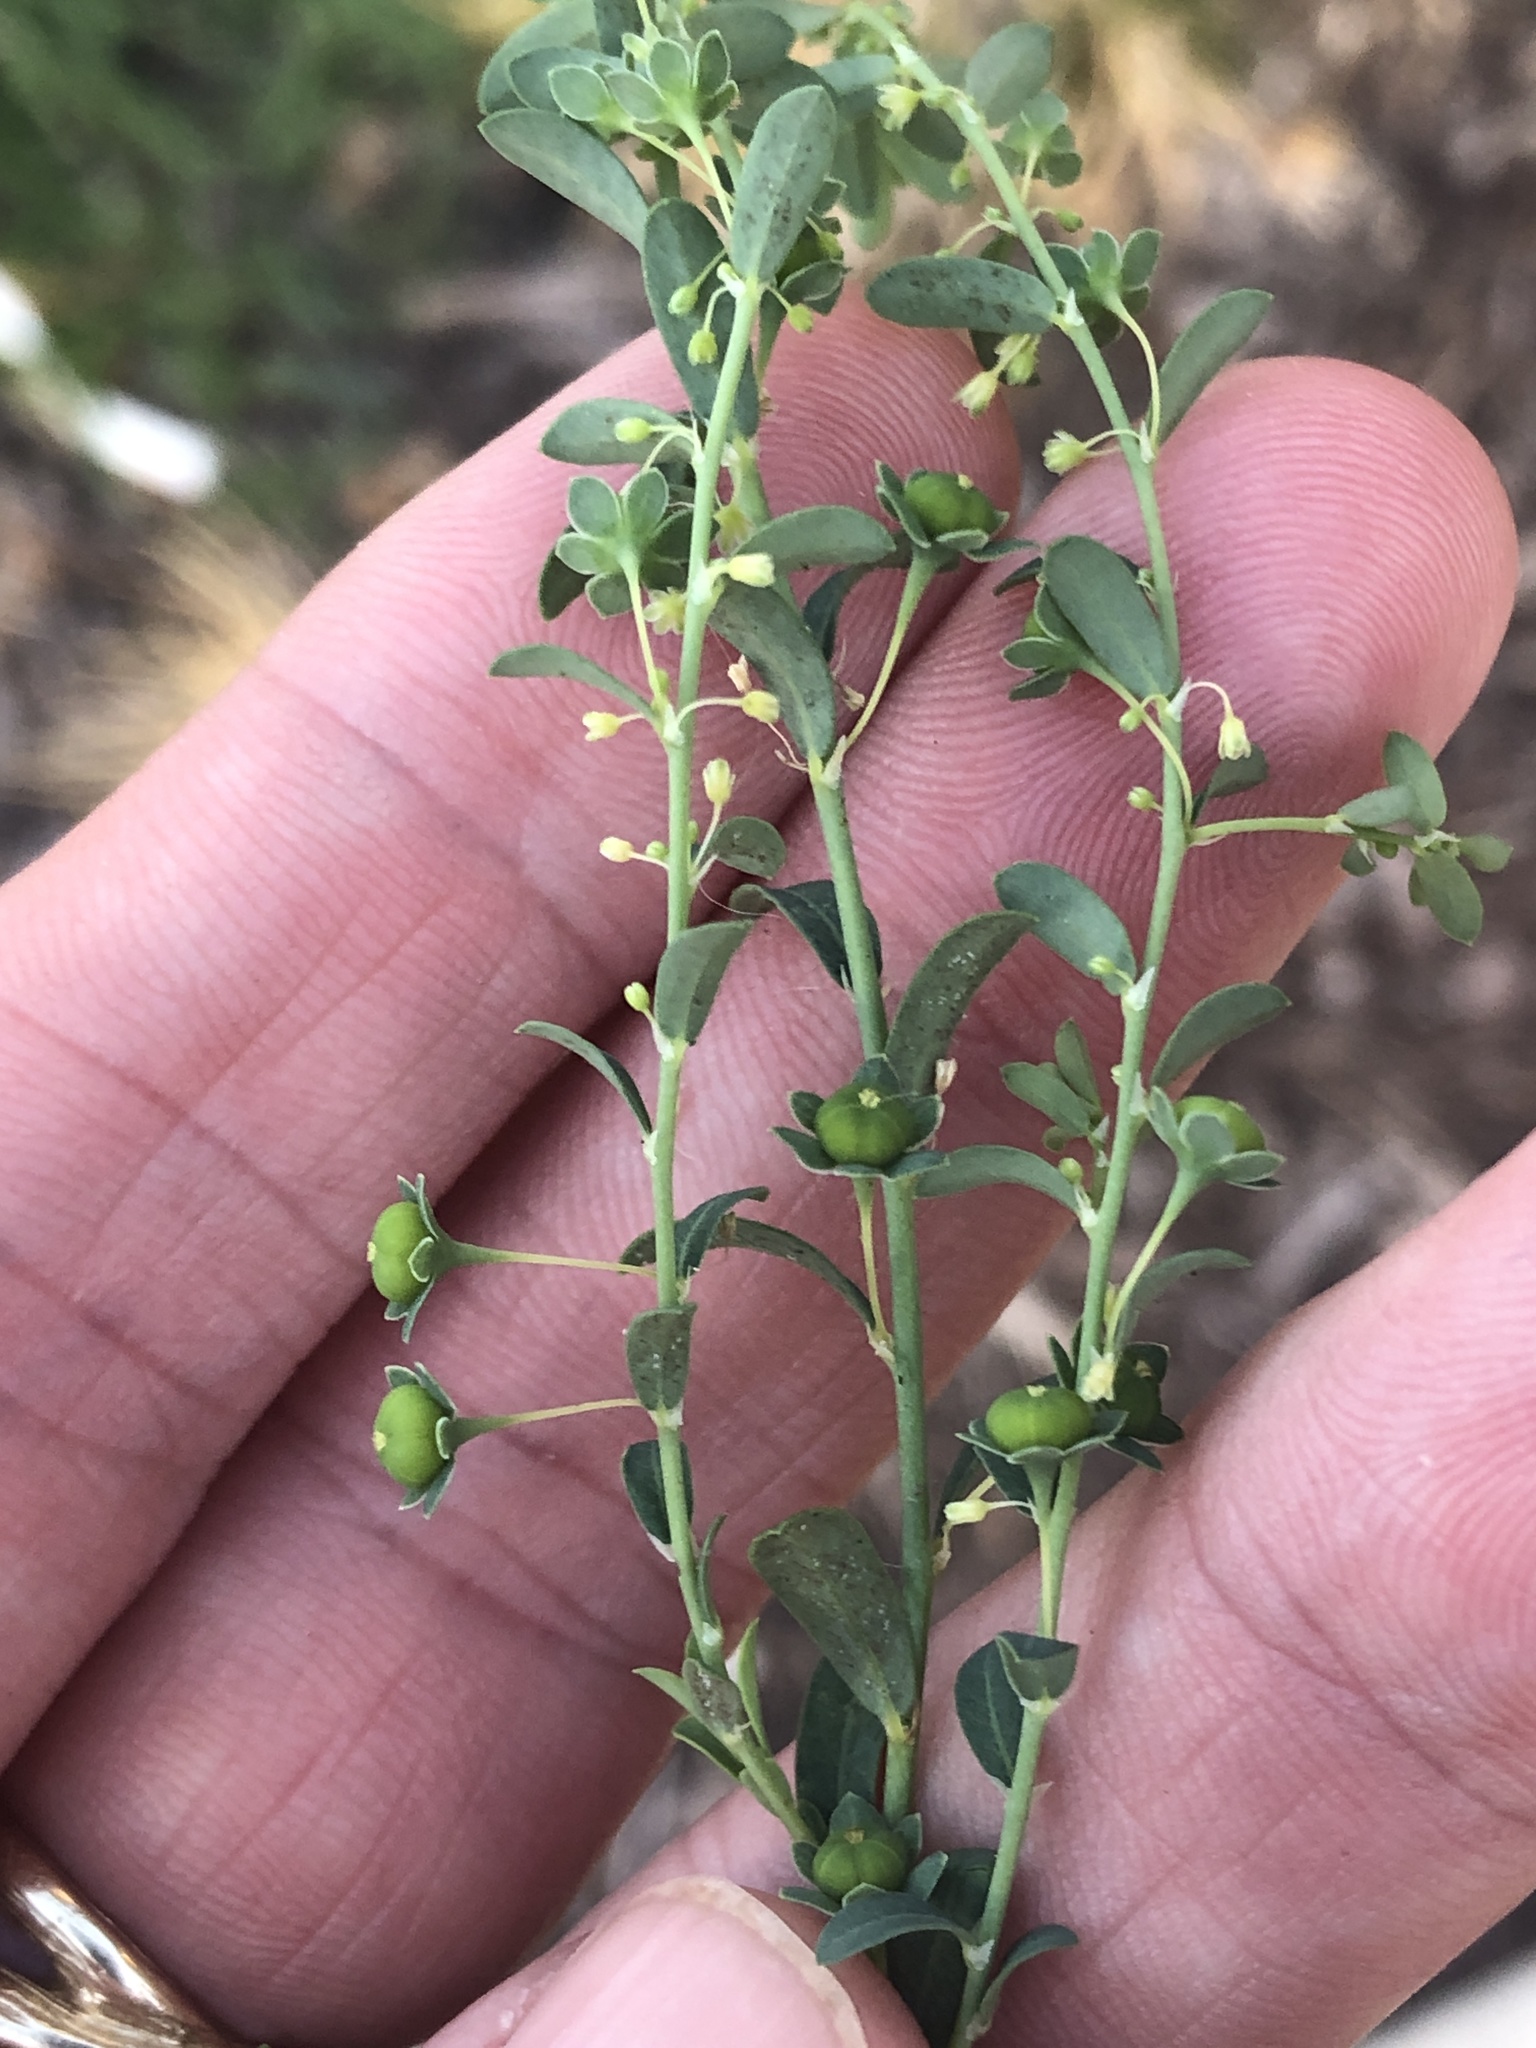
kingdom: Plantae
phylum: Tracheophyta
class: Magnoliopsida
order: Malpighiales
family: Phyllanthaceae
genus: Phyllanthus
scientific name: Phyllanthus tenellus
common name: Mascarene island leaf-flower
